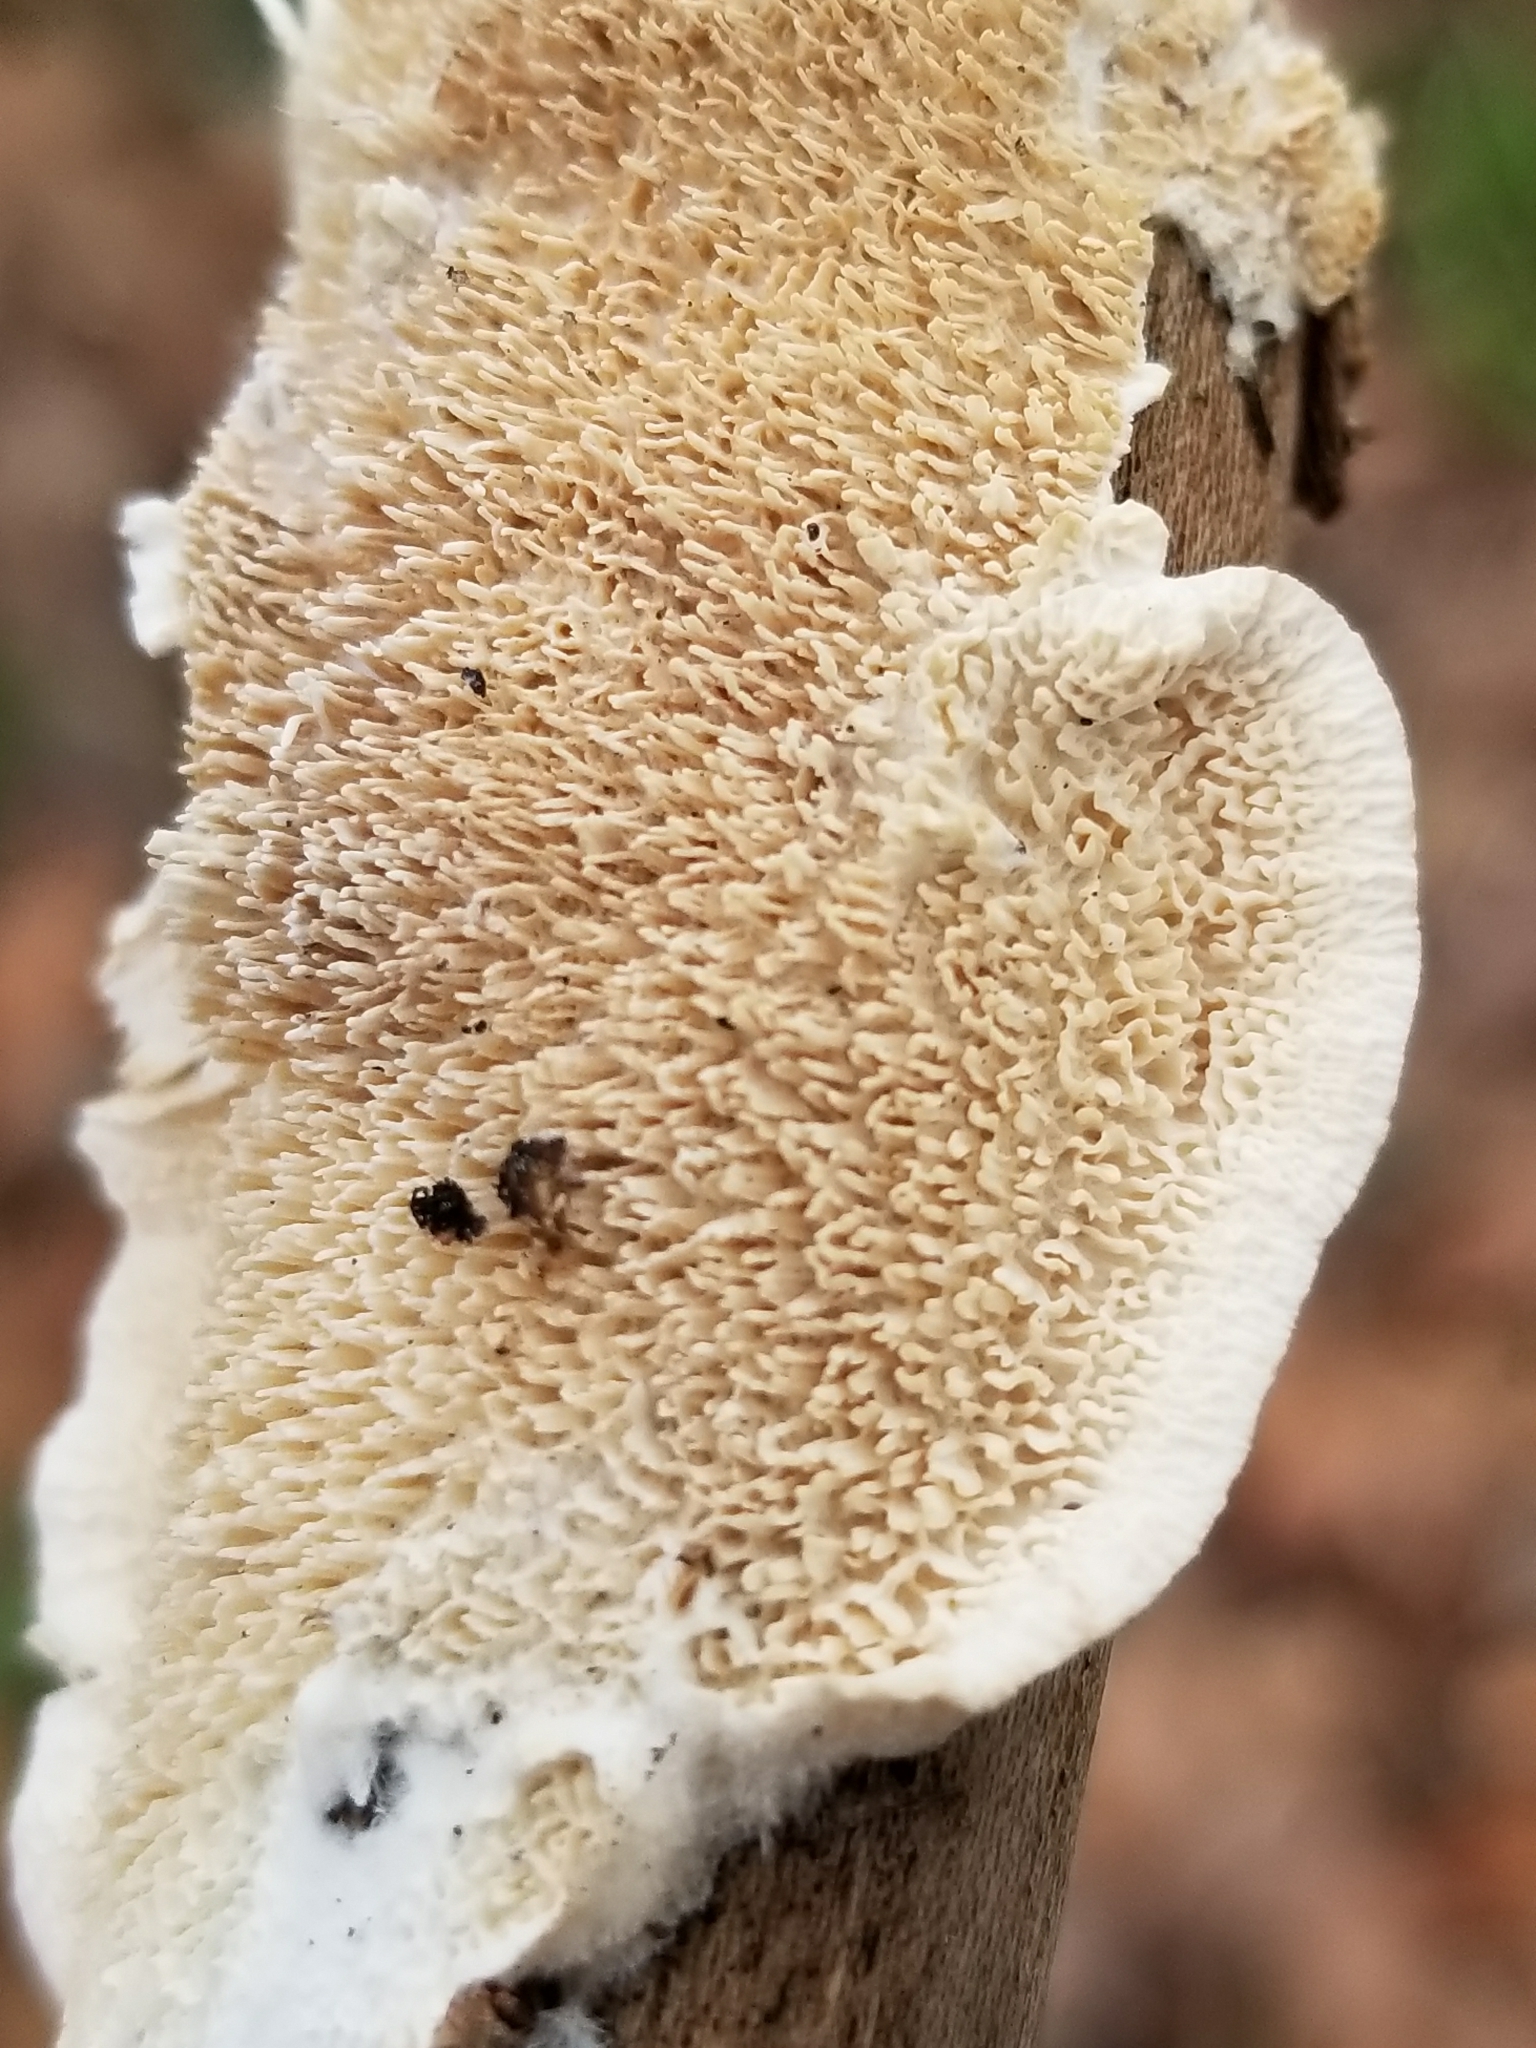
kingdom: Fungi
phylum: Basidiomycota
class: Agaricomycetes
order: Polyporales
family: Irpicaceae
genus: Irpex
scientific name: Irpex lacteus
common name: Milk-white toothed polypore
